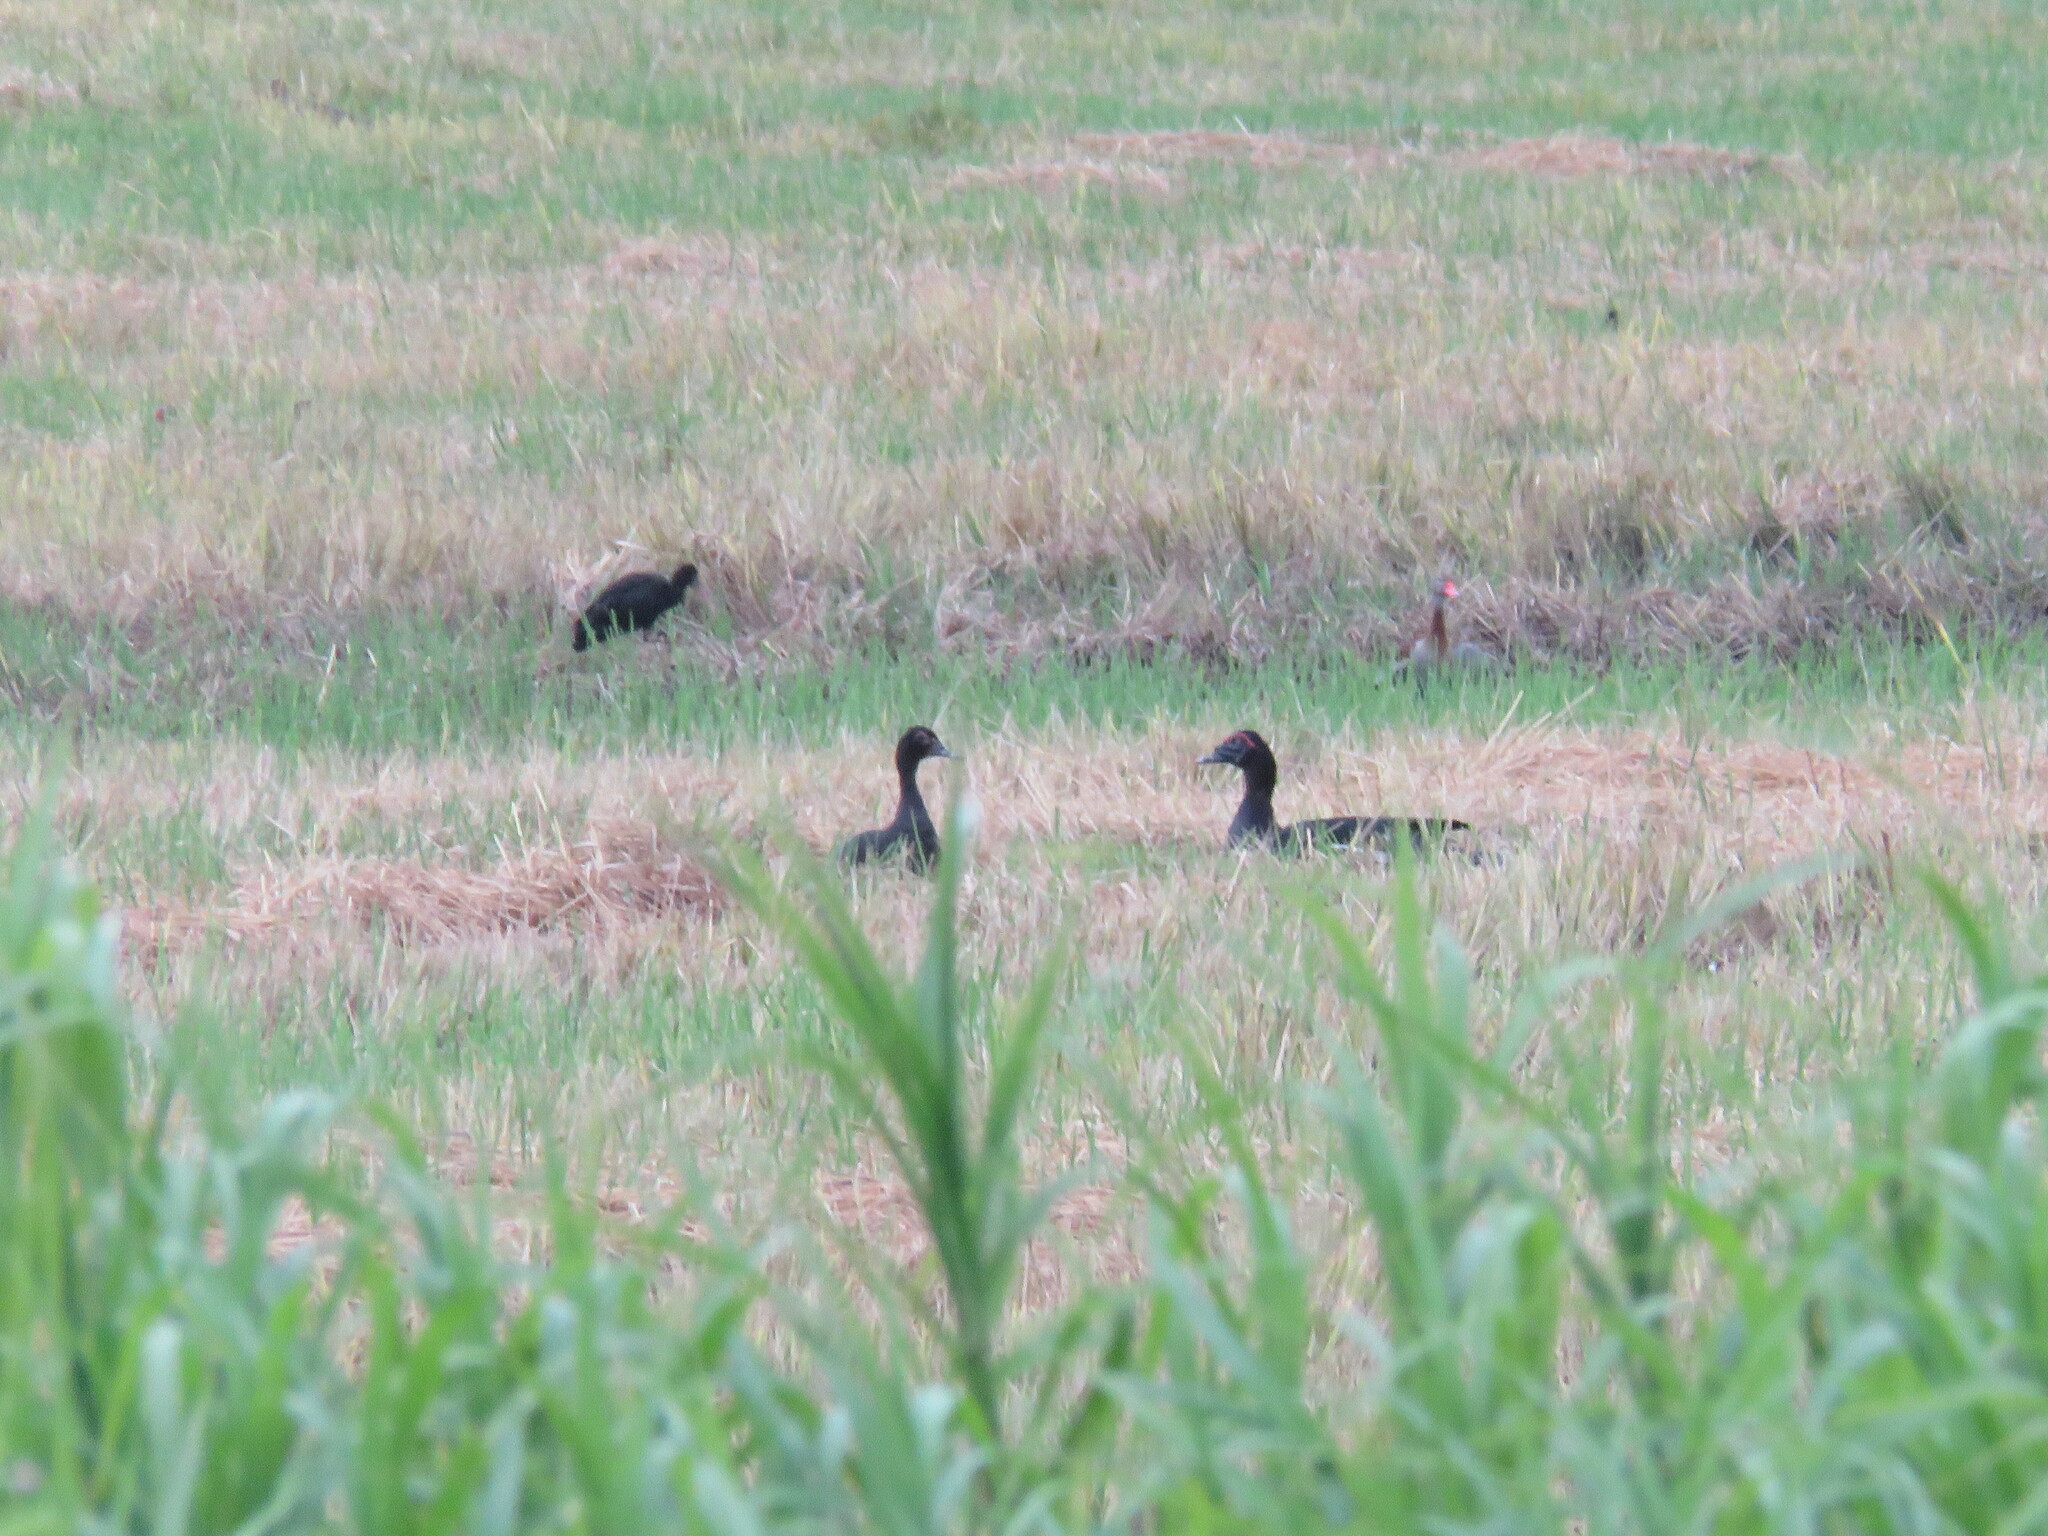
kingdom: Animalia
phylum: Chordata
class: Aves
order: Anseriformes
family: Anatidae
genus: Cairina
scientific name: Cairina moschata
